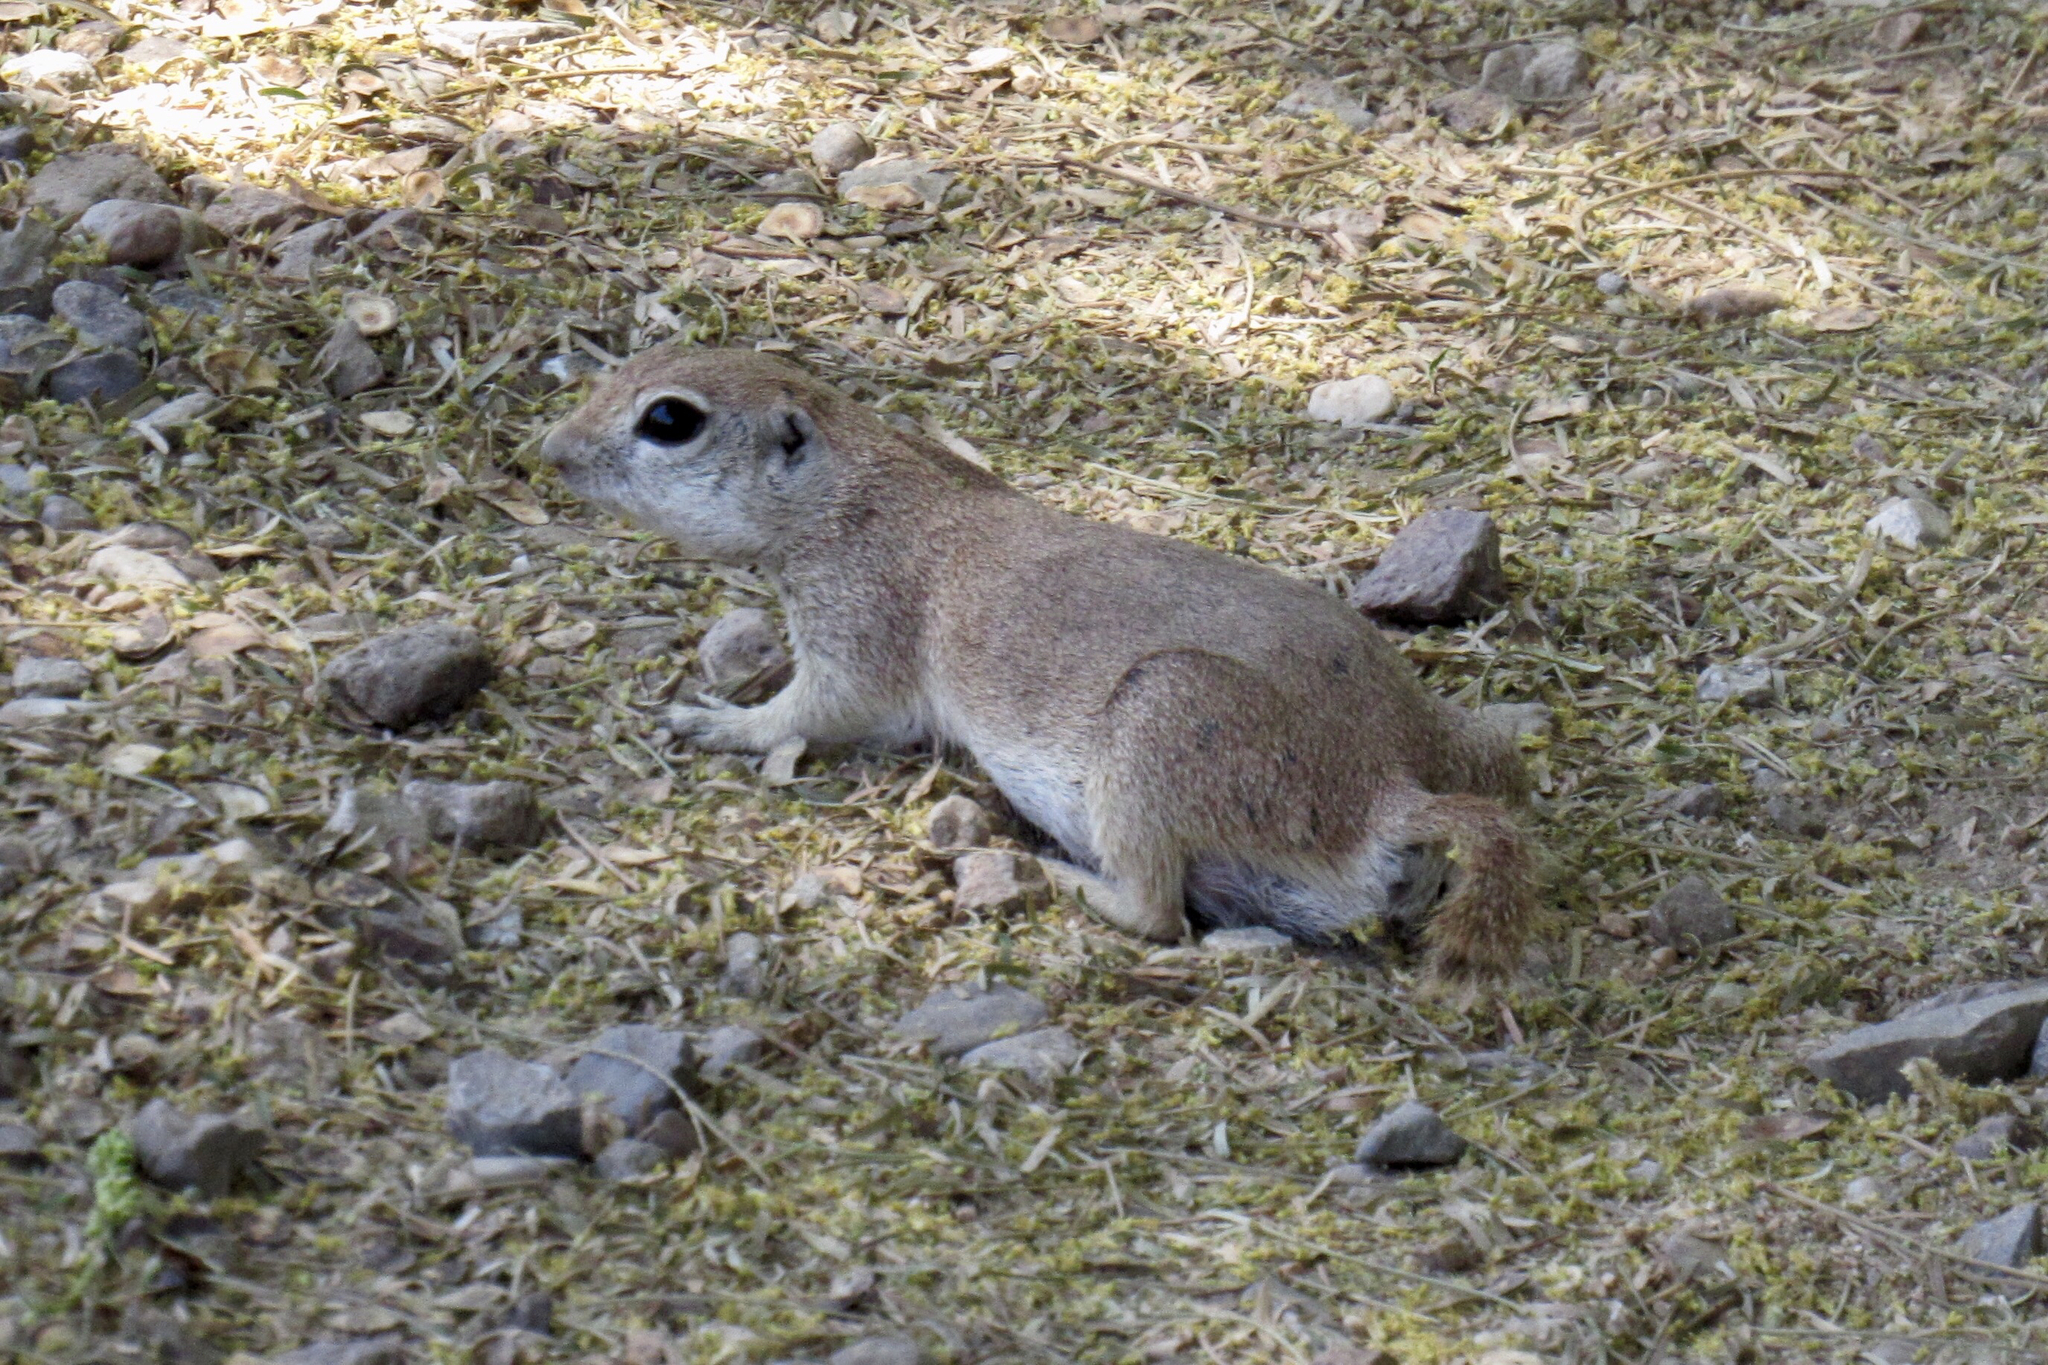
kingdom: Animalia
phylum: Chordata
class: Mammalia
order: Rodentia
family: Sciuridae
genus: Xerospermophilus
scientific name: Xerospermophilus tereticaudus
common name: Round-tailed ground squirrel
